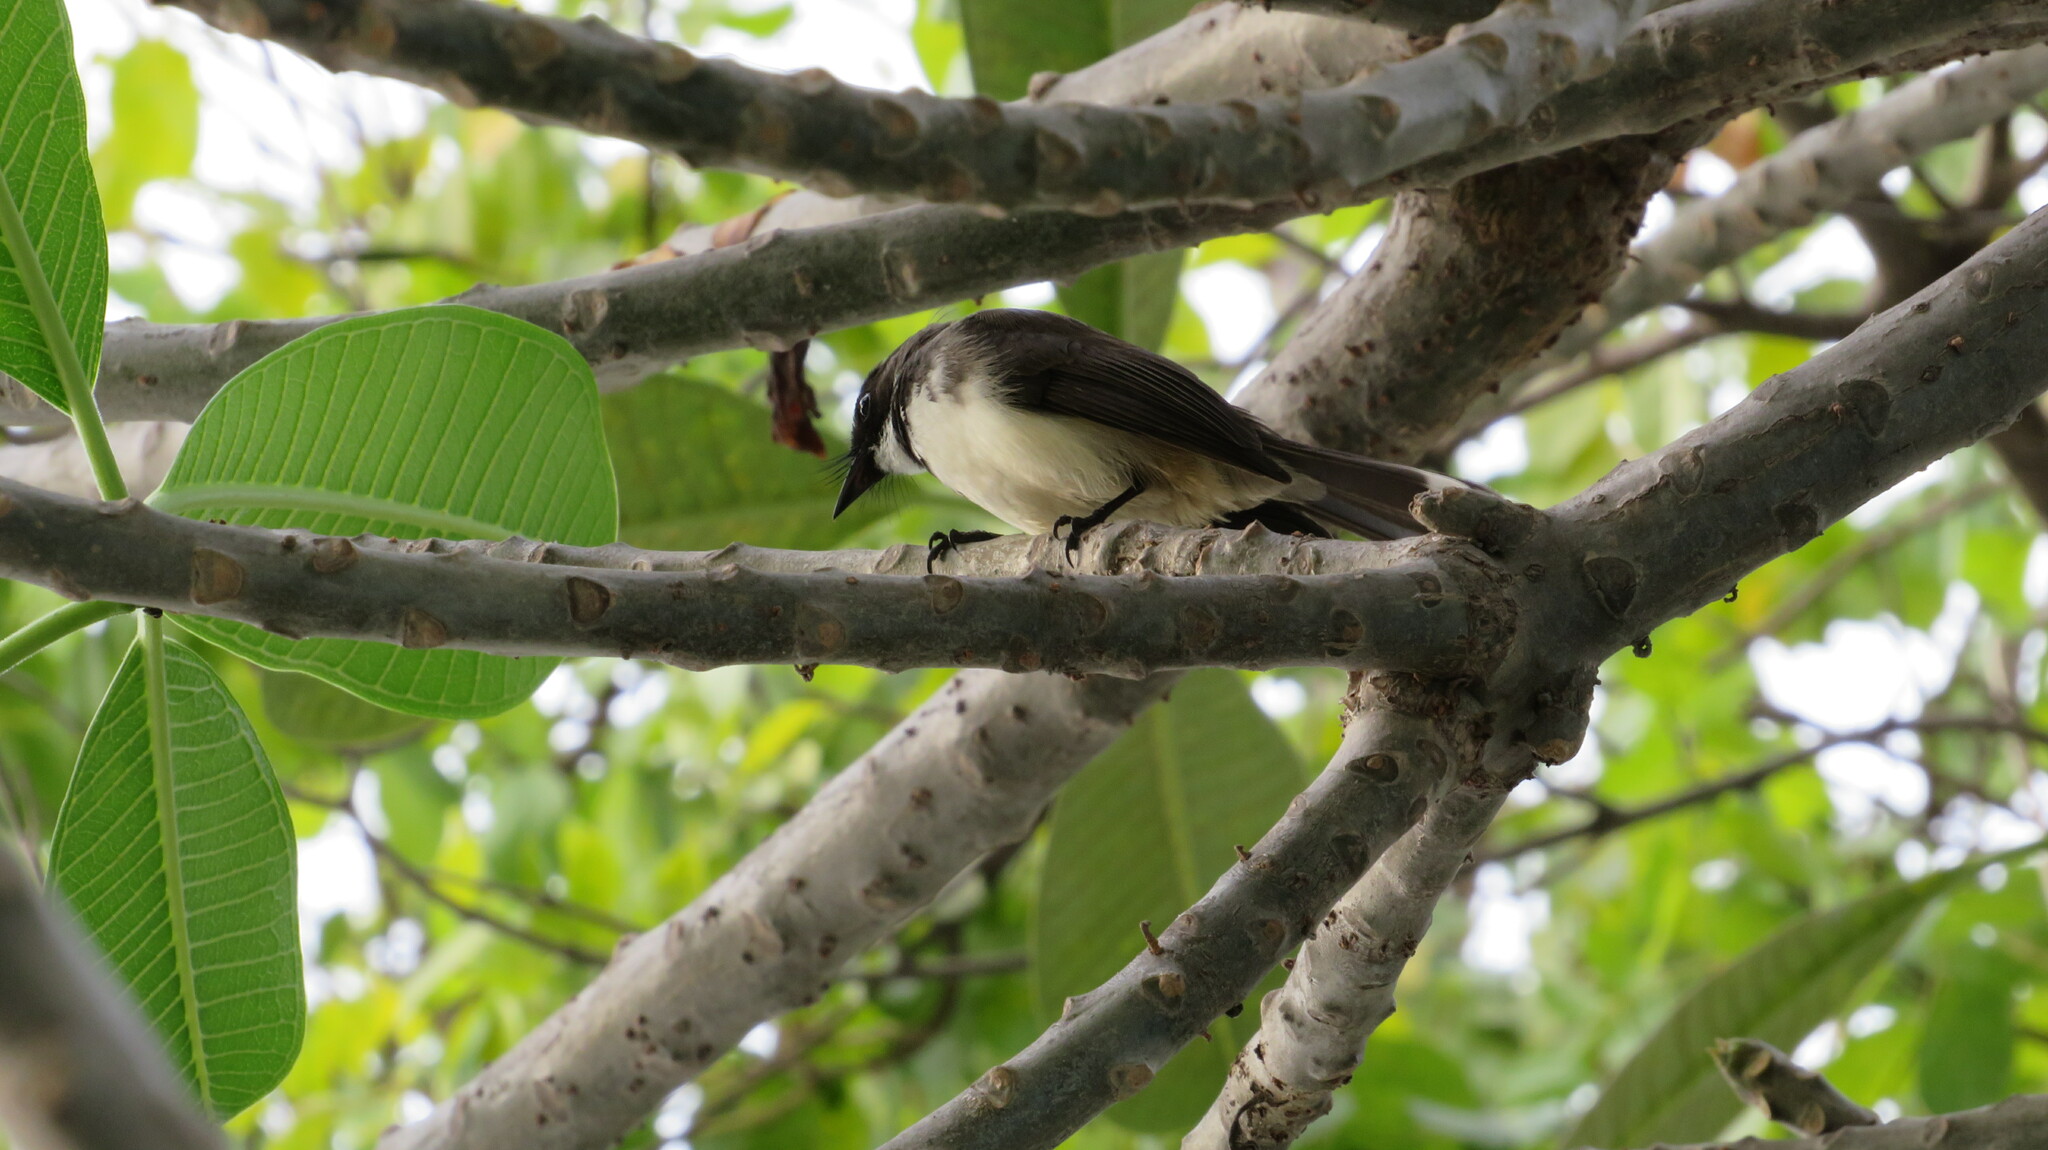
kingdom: Animalia
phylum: Chordata
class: Aves
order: Passeriformes
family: Rhipiduridae
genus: Rhipidura
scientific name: Rhipidura javanica
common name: Pied fantail
